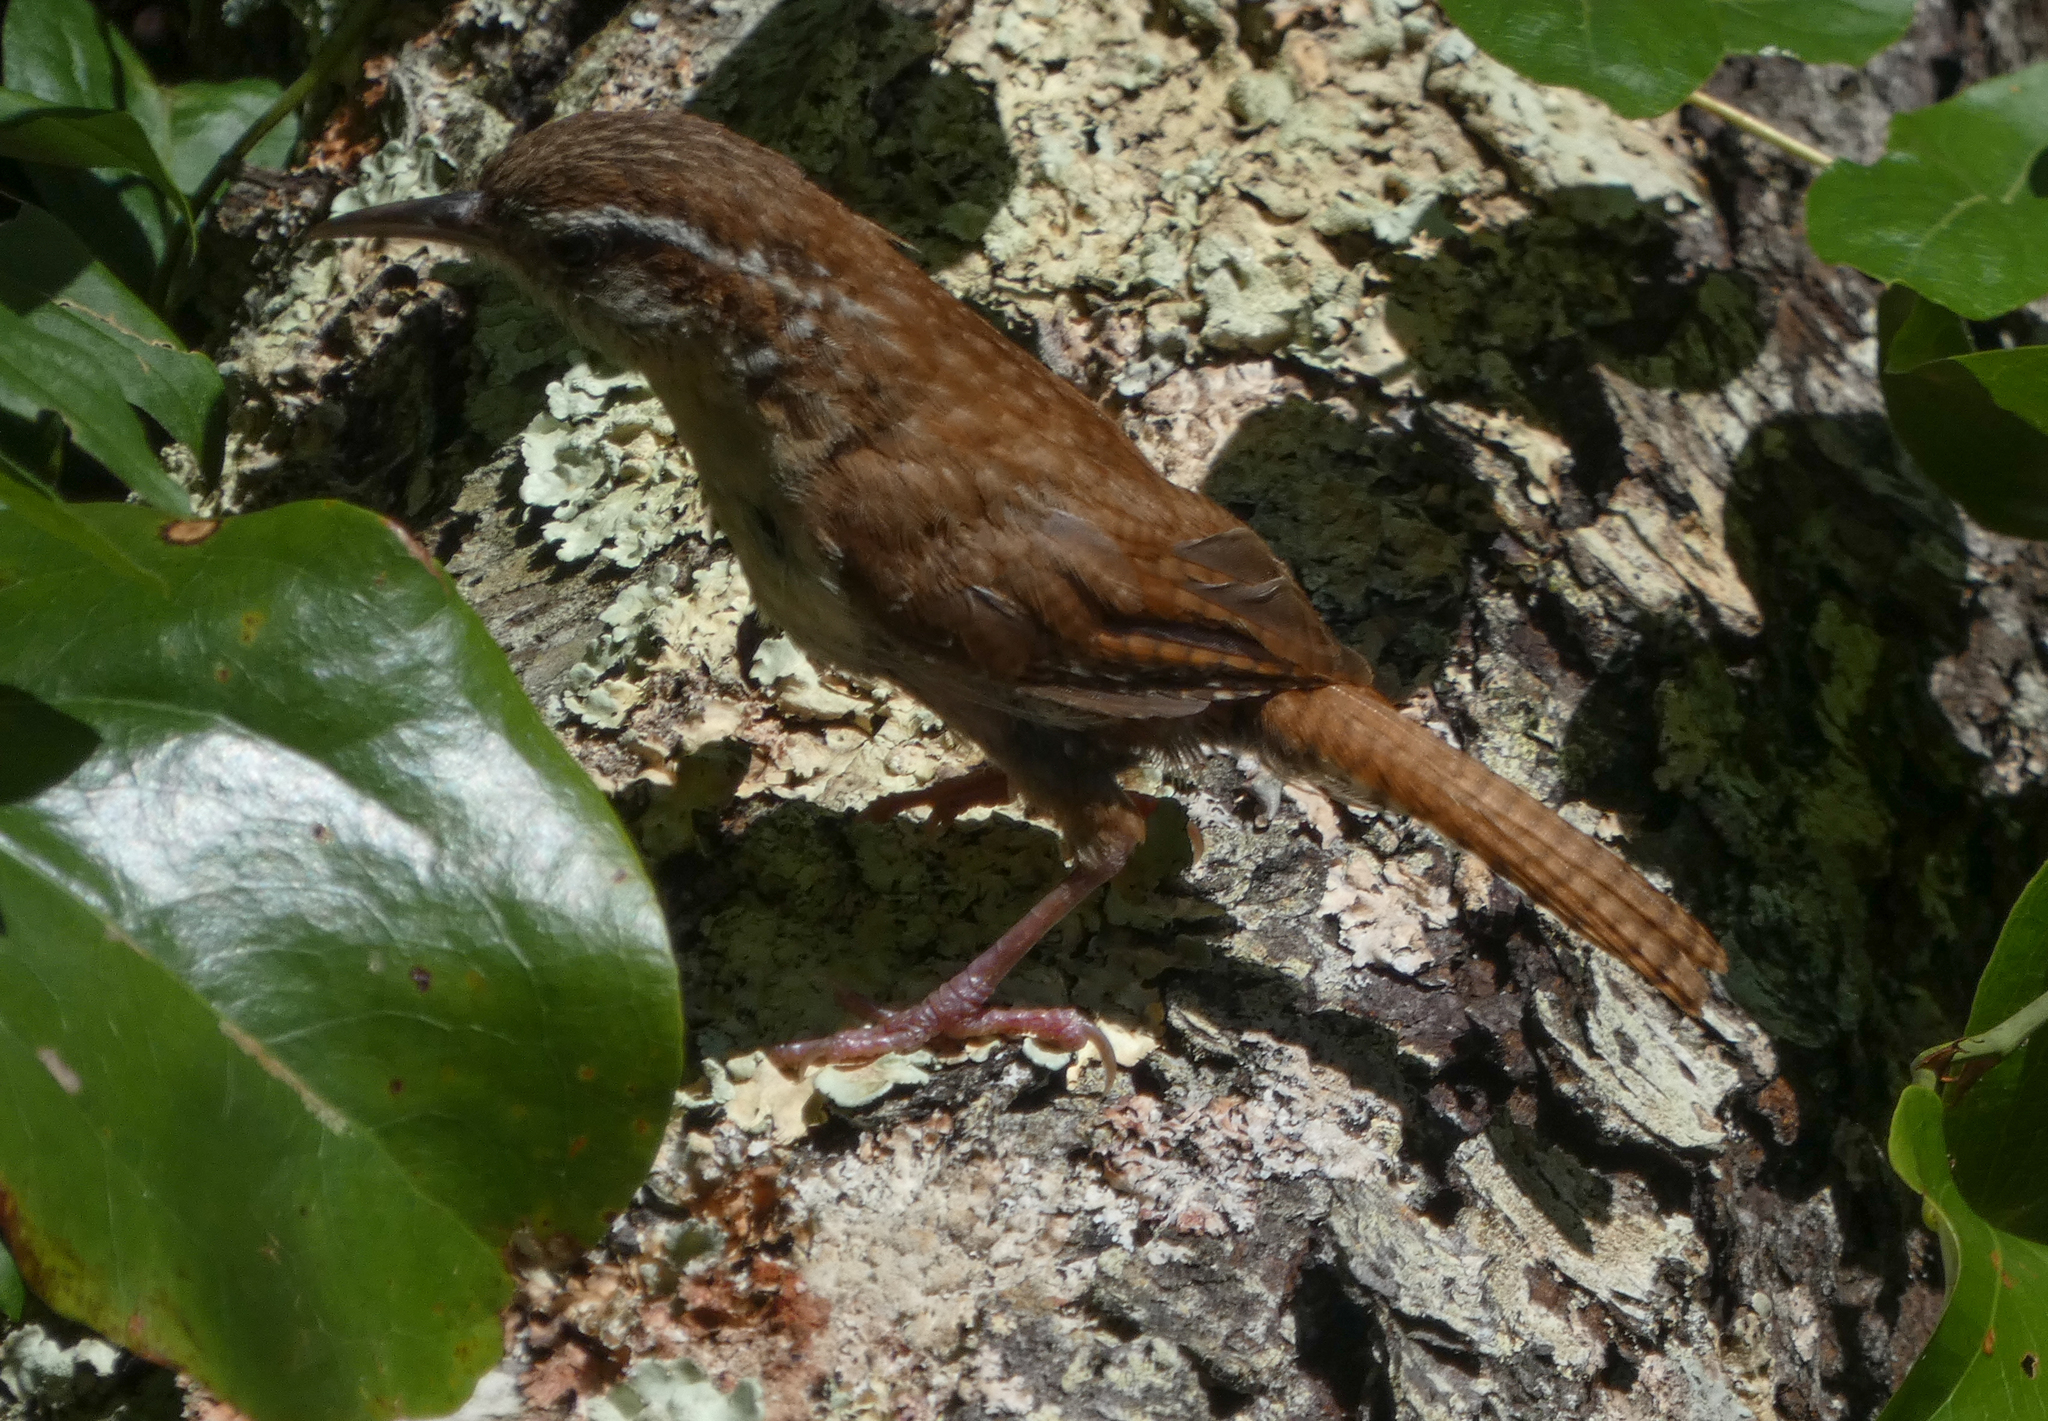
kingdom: Animalia
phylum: Chordata
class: Aves
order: Passeriformes
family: Troglodytidae
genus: Thryothorus
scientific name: Thryothorus ludovicianus
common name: Carolina wren
